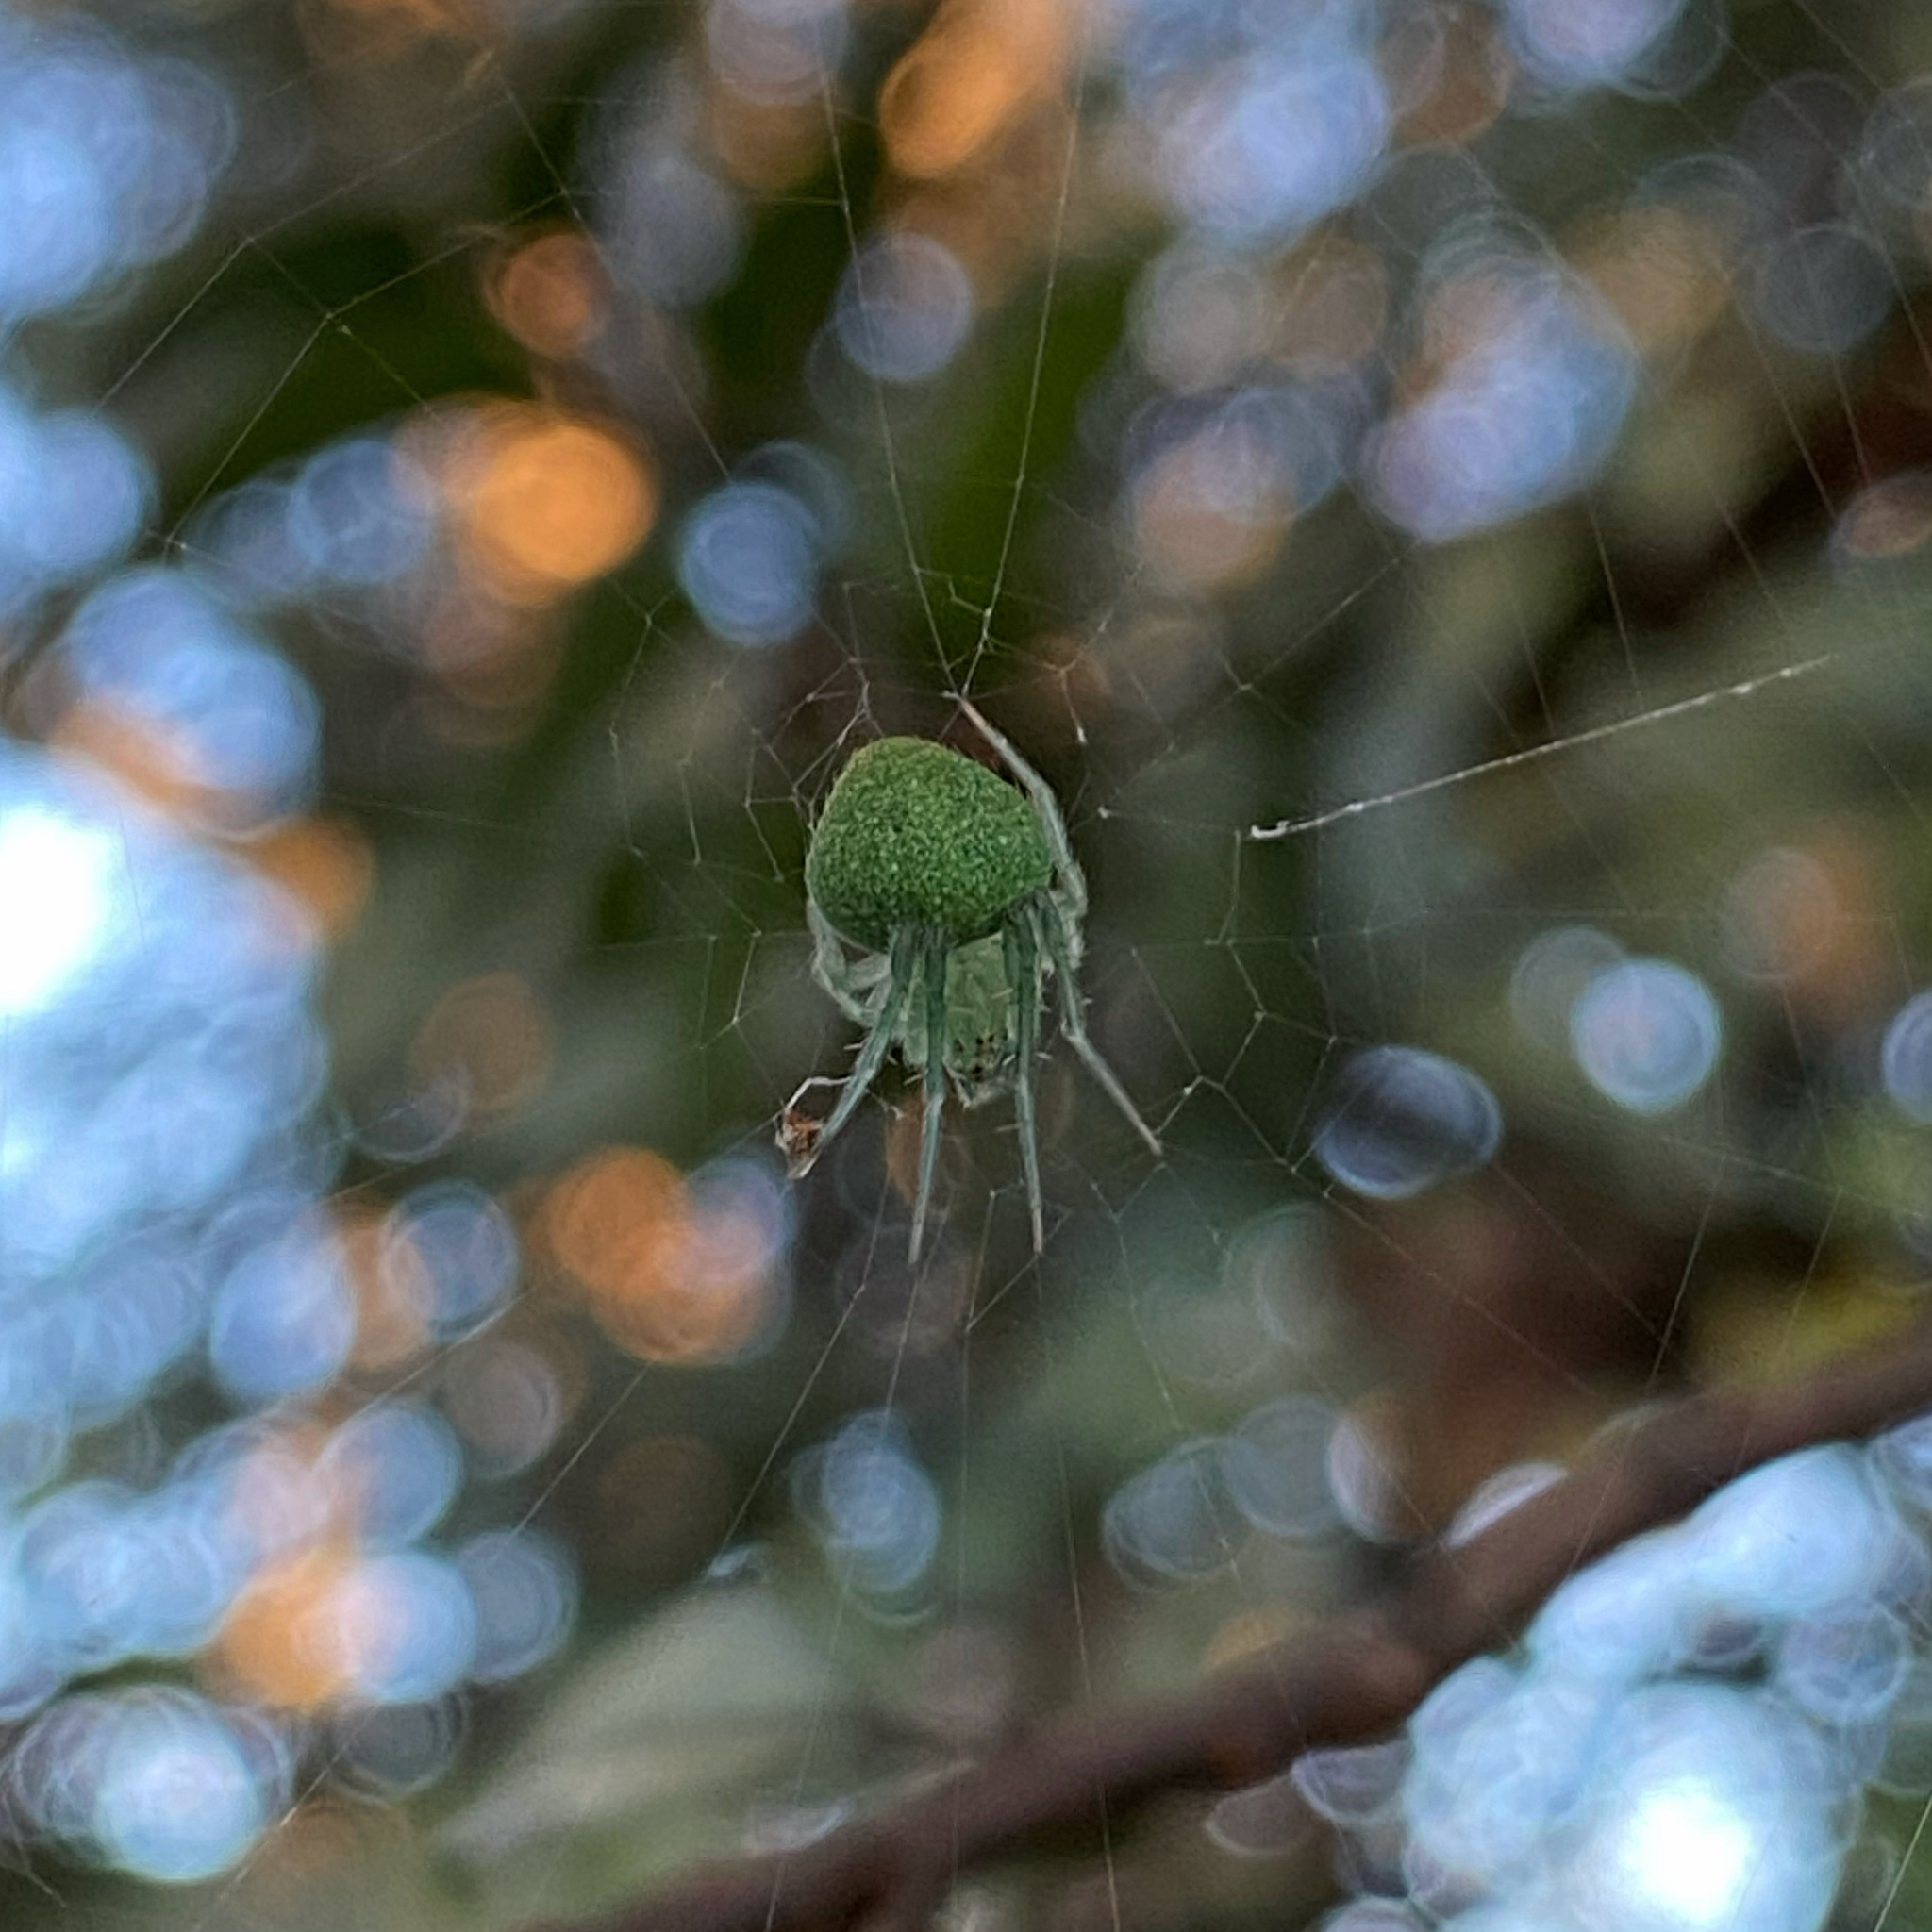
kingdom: Animalia
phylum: Arthropoda
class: Arachnida
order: Araneae
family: Araneidae
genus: Araneus
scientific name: Araneus circulissparsus
